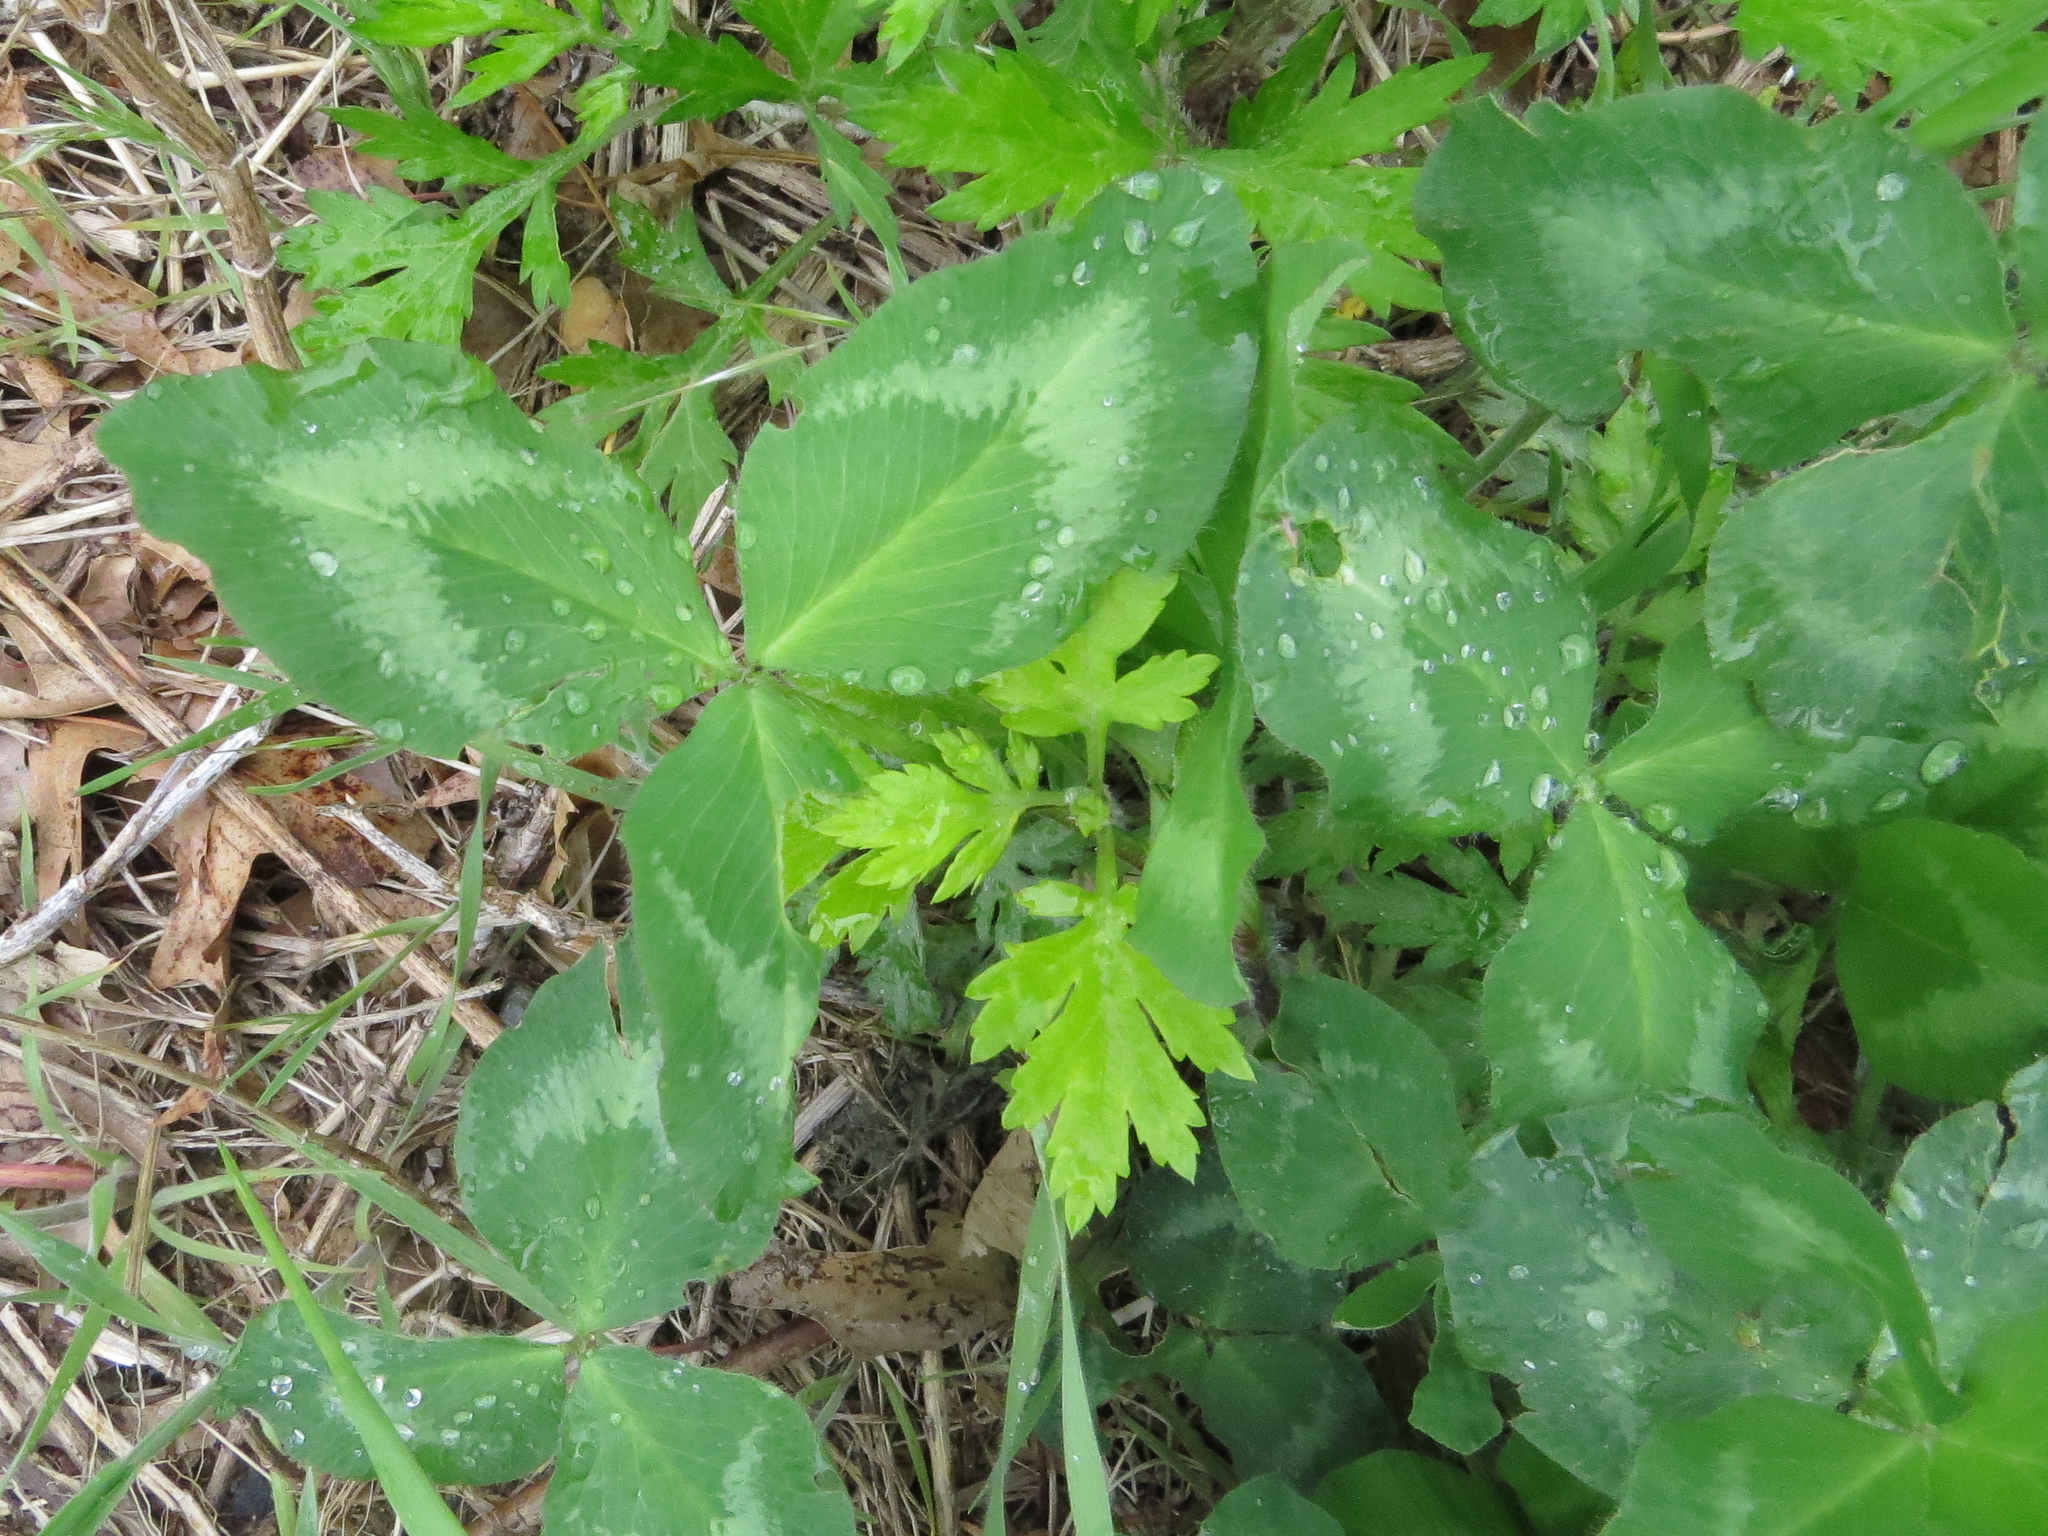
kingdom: Plantae
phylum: Tracheophyta
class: Magnoliopsida
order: Fabales
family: Fabaceae
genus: Trifolium
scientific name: Trifolium pratense
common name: Red clover
